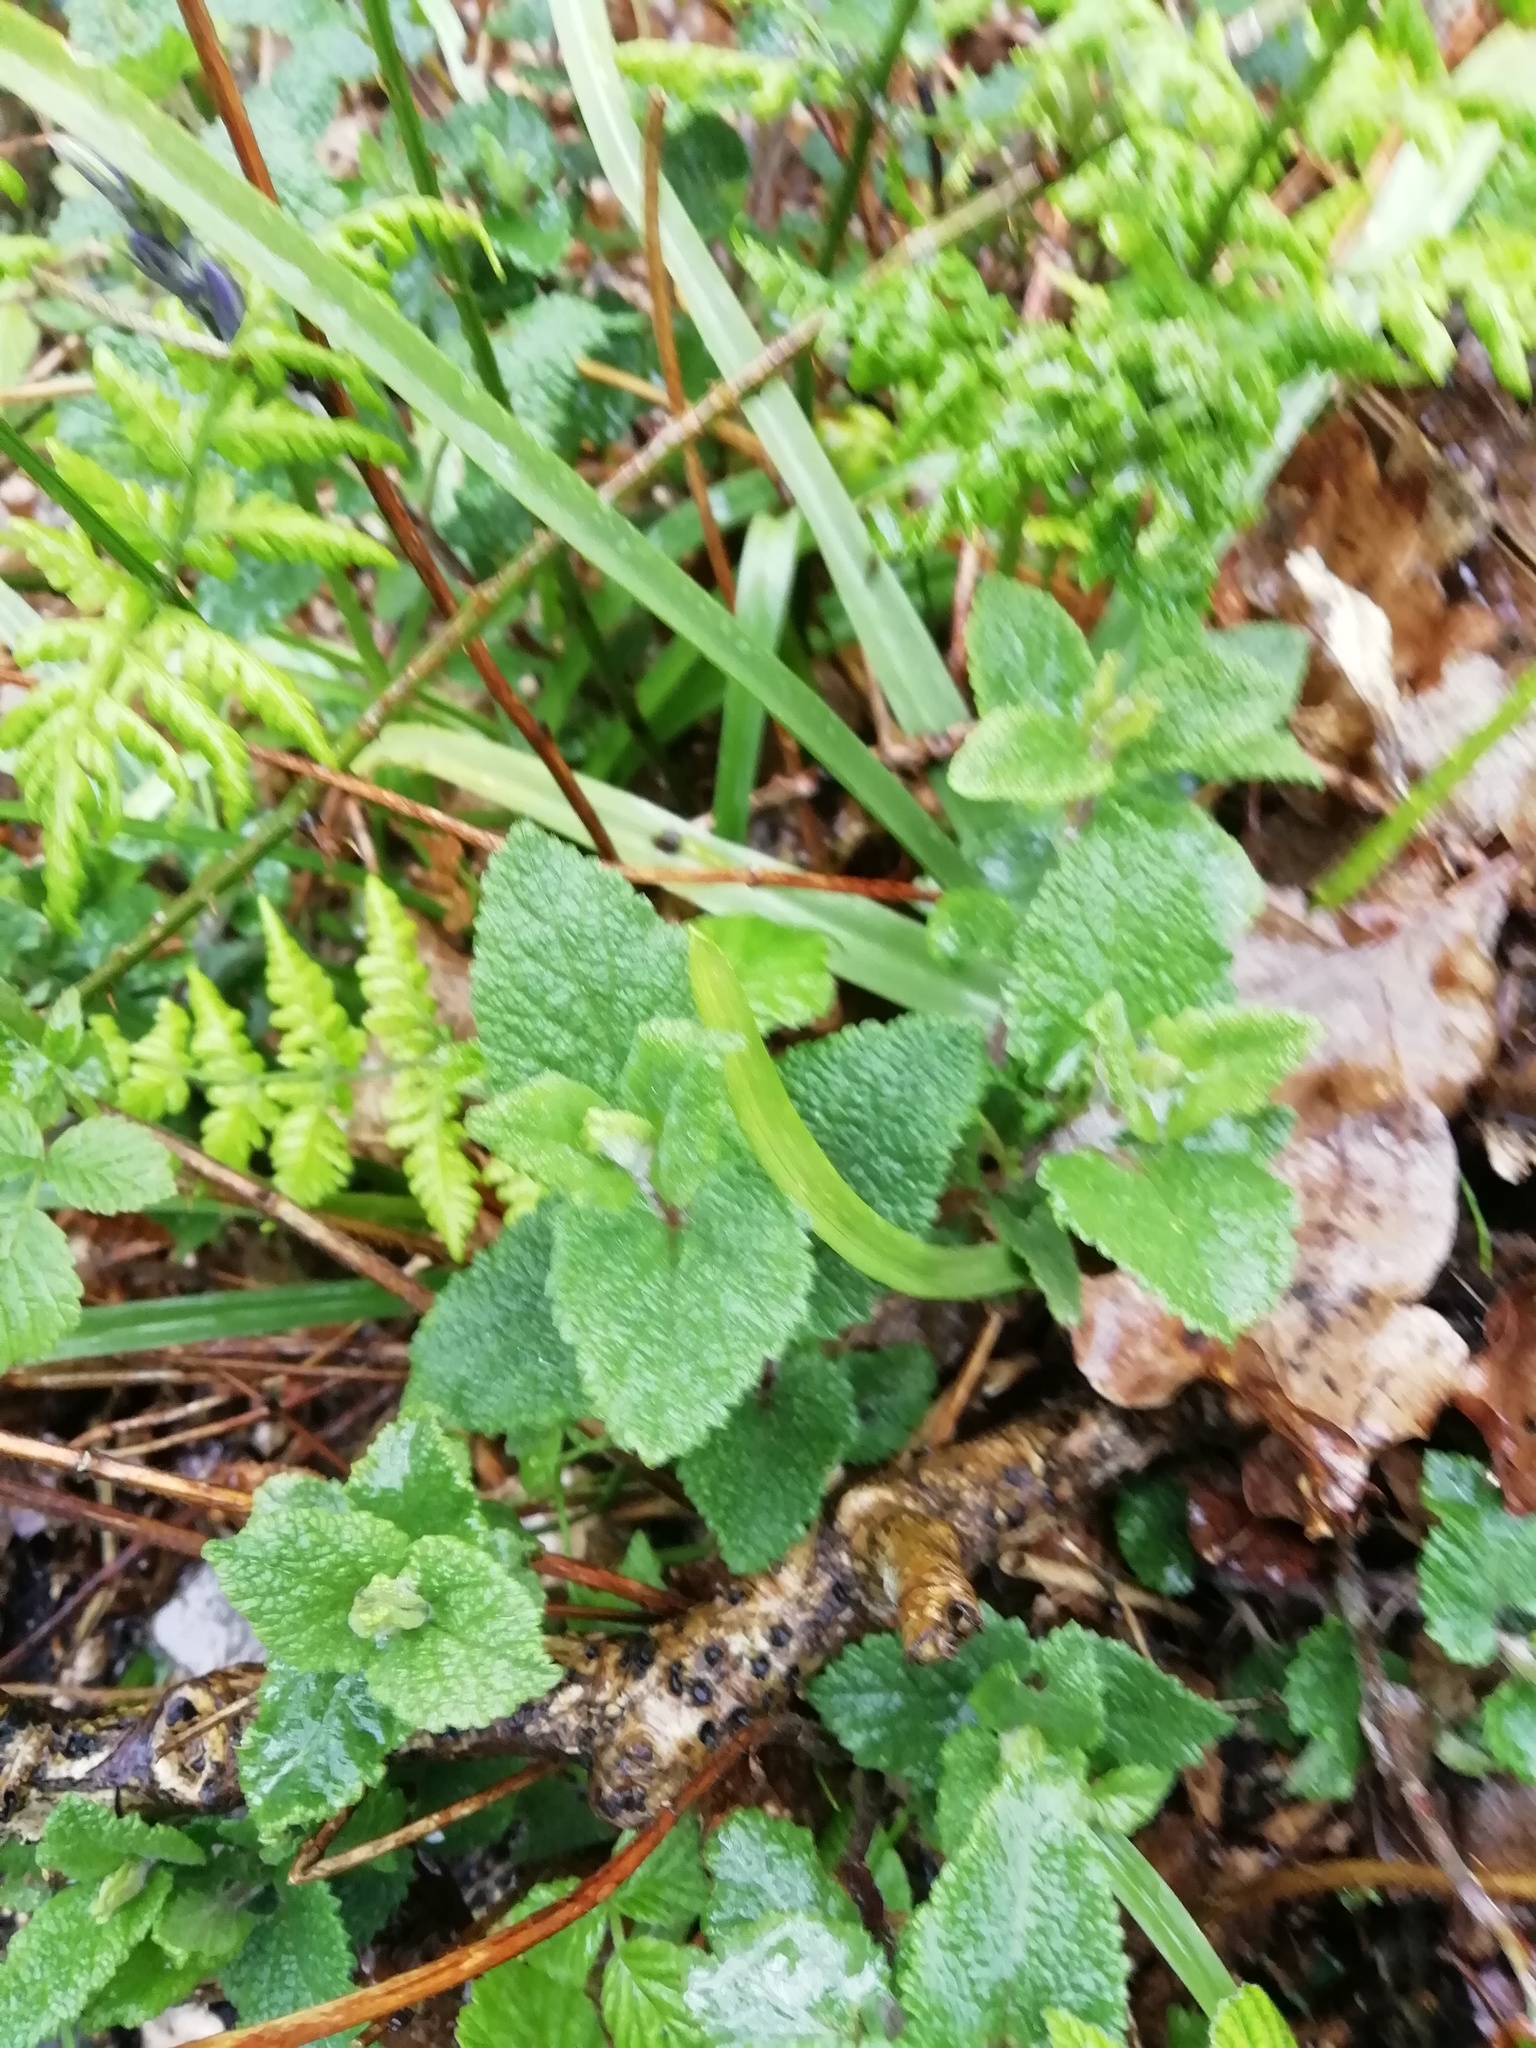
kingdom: Plantae
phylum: Tracheophyta
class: Magnoliopsida
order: Lamiales
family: Lamiaceae
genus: Melissa
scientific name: Melissa officinalis
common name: Balm
